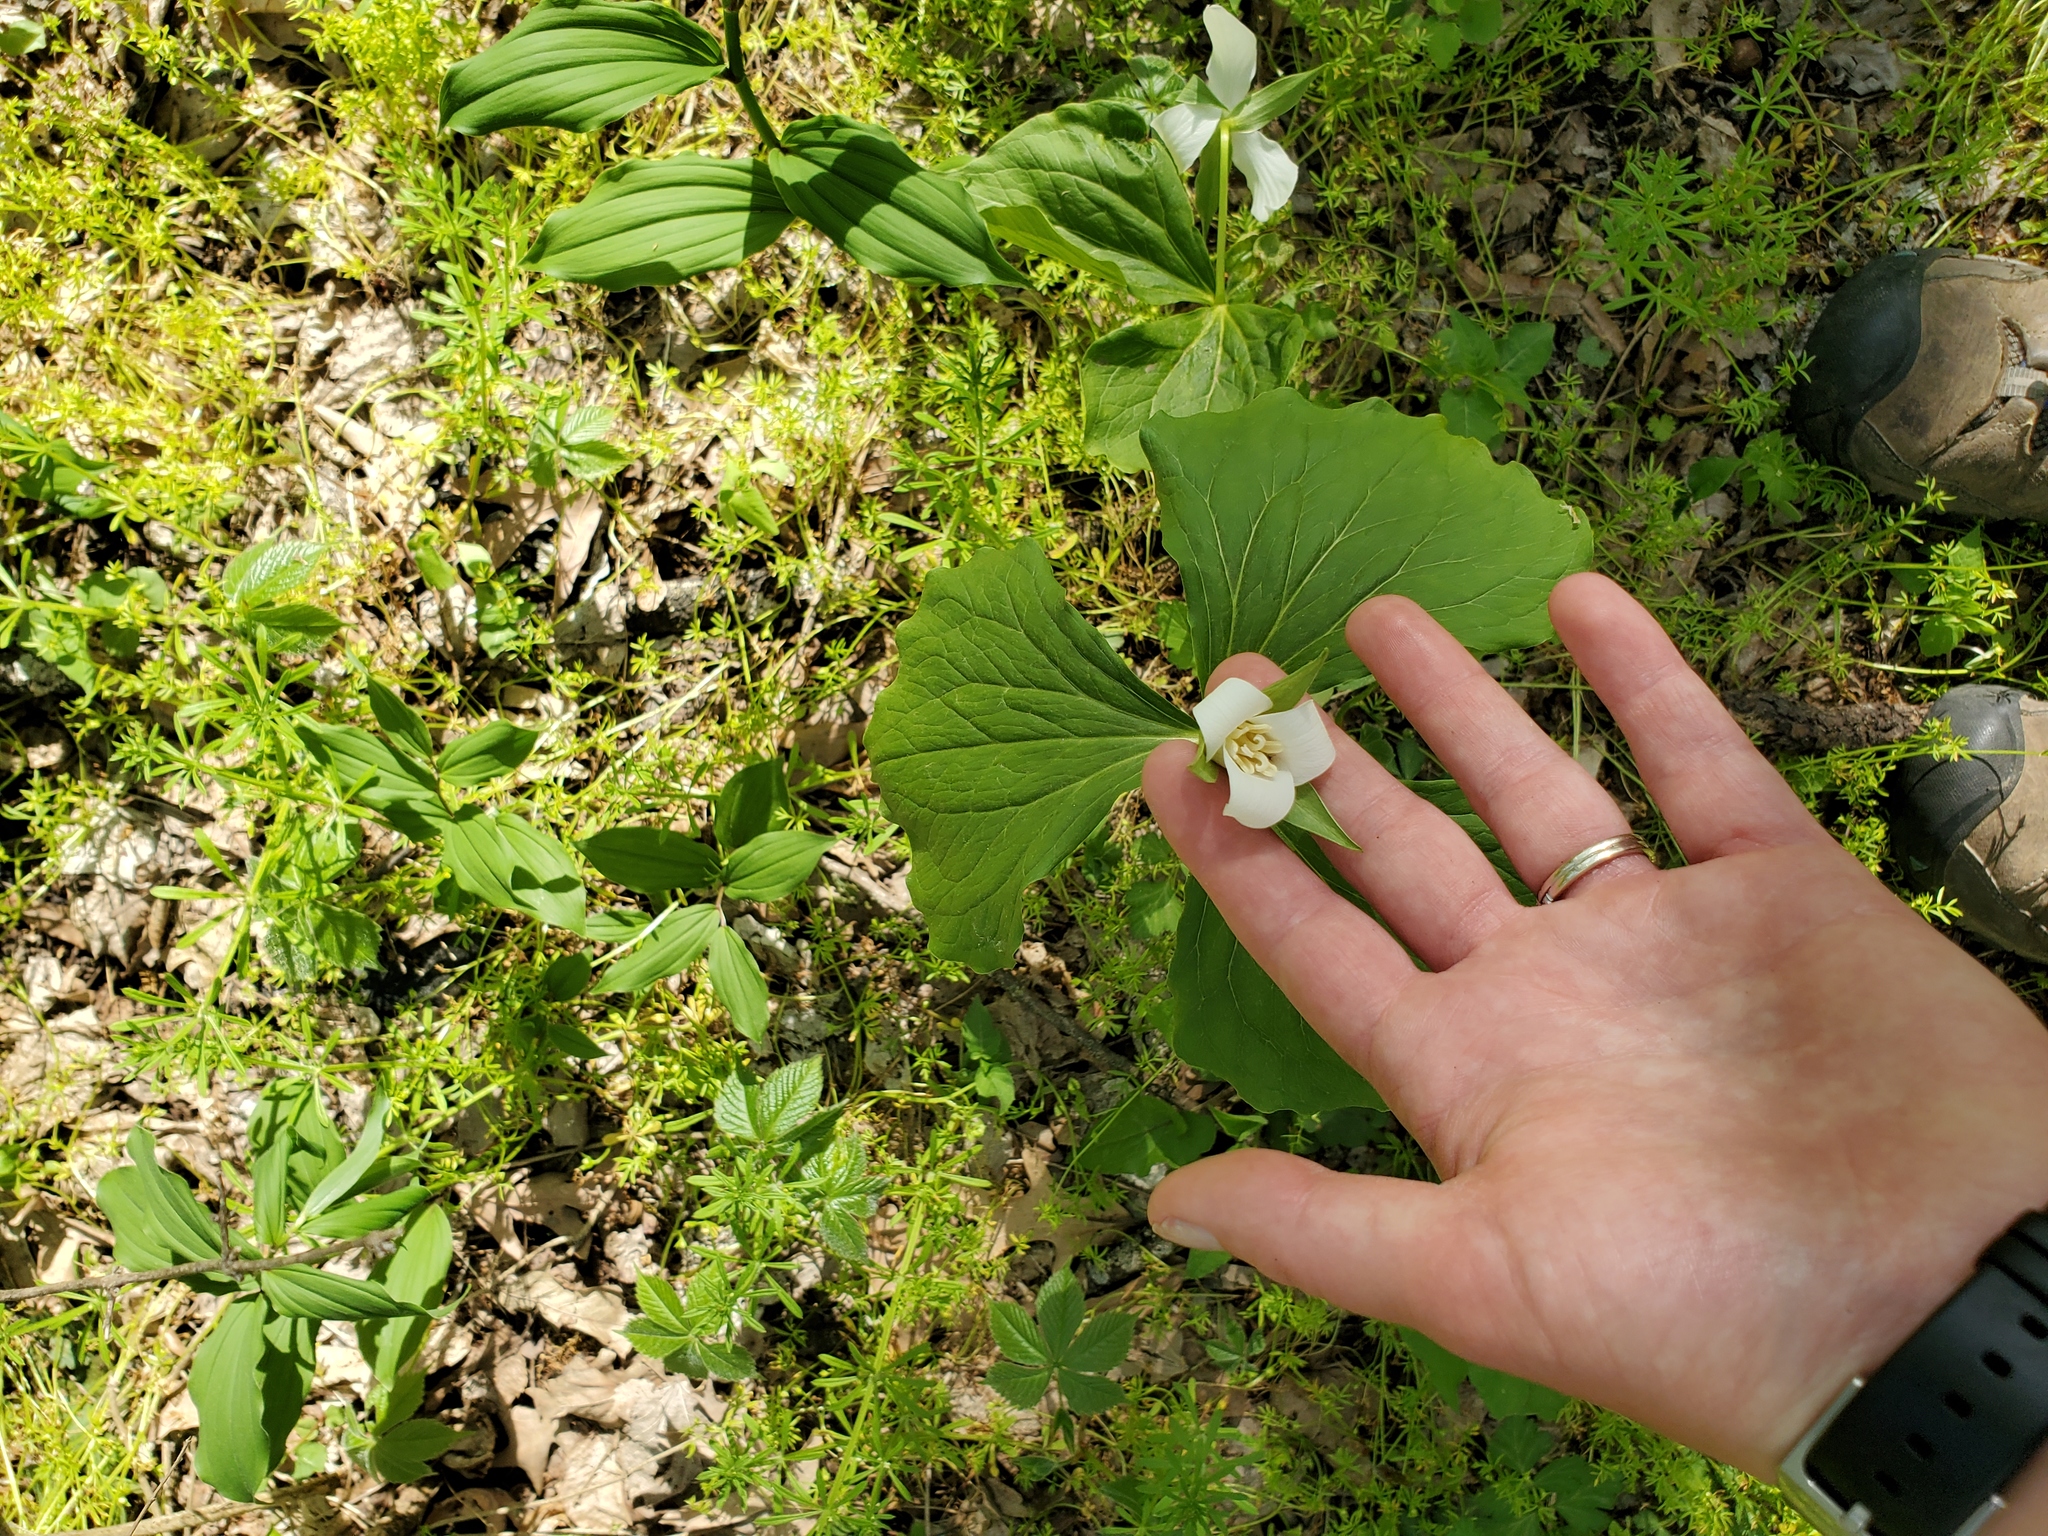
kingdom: Plantae
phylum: Tracheophyta
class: Liliopsida
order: Liliales
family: Melanthiaceae
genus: Trillium
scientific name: Trillium flexipes
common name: Drooping trillium
